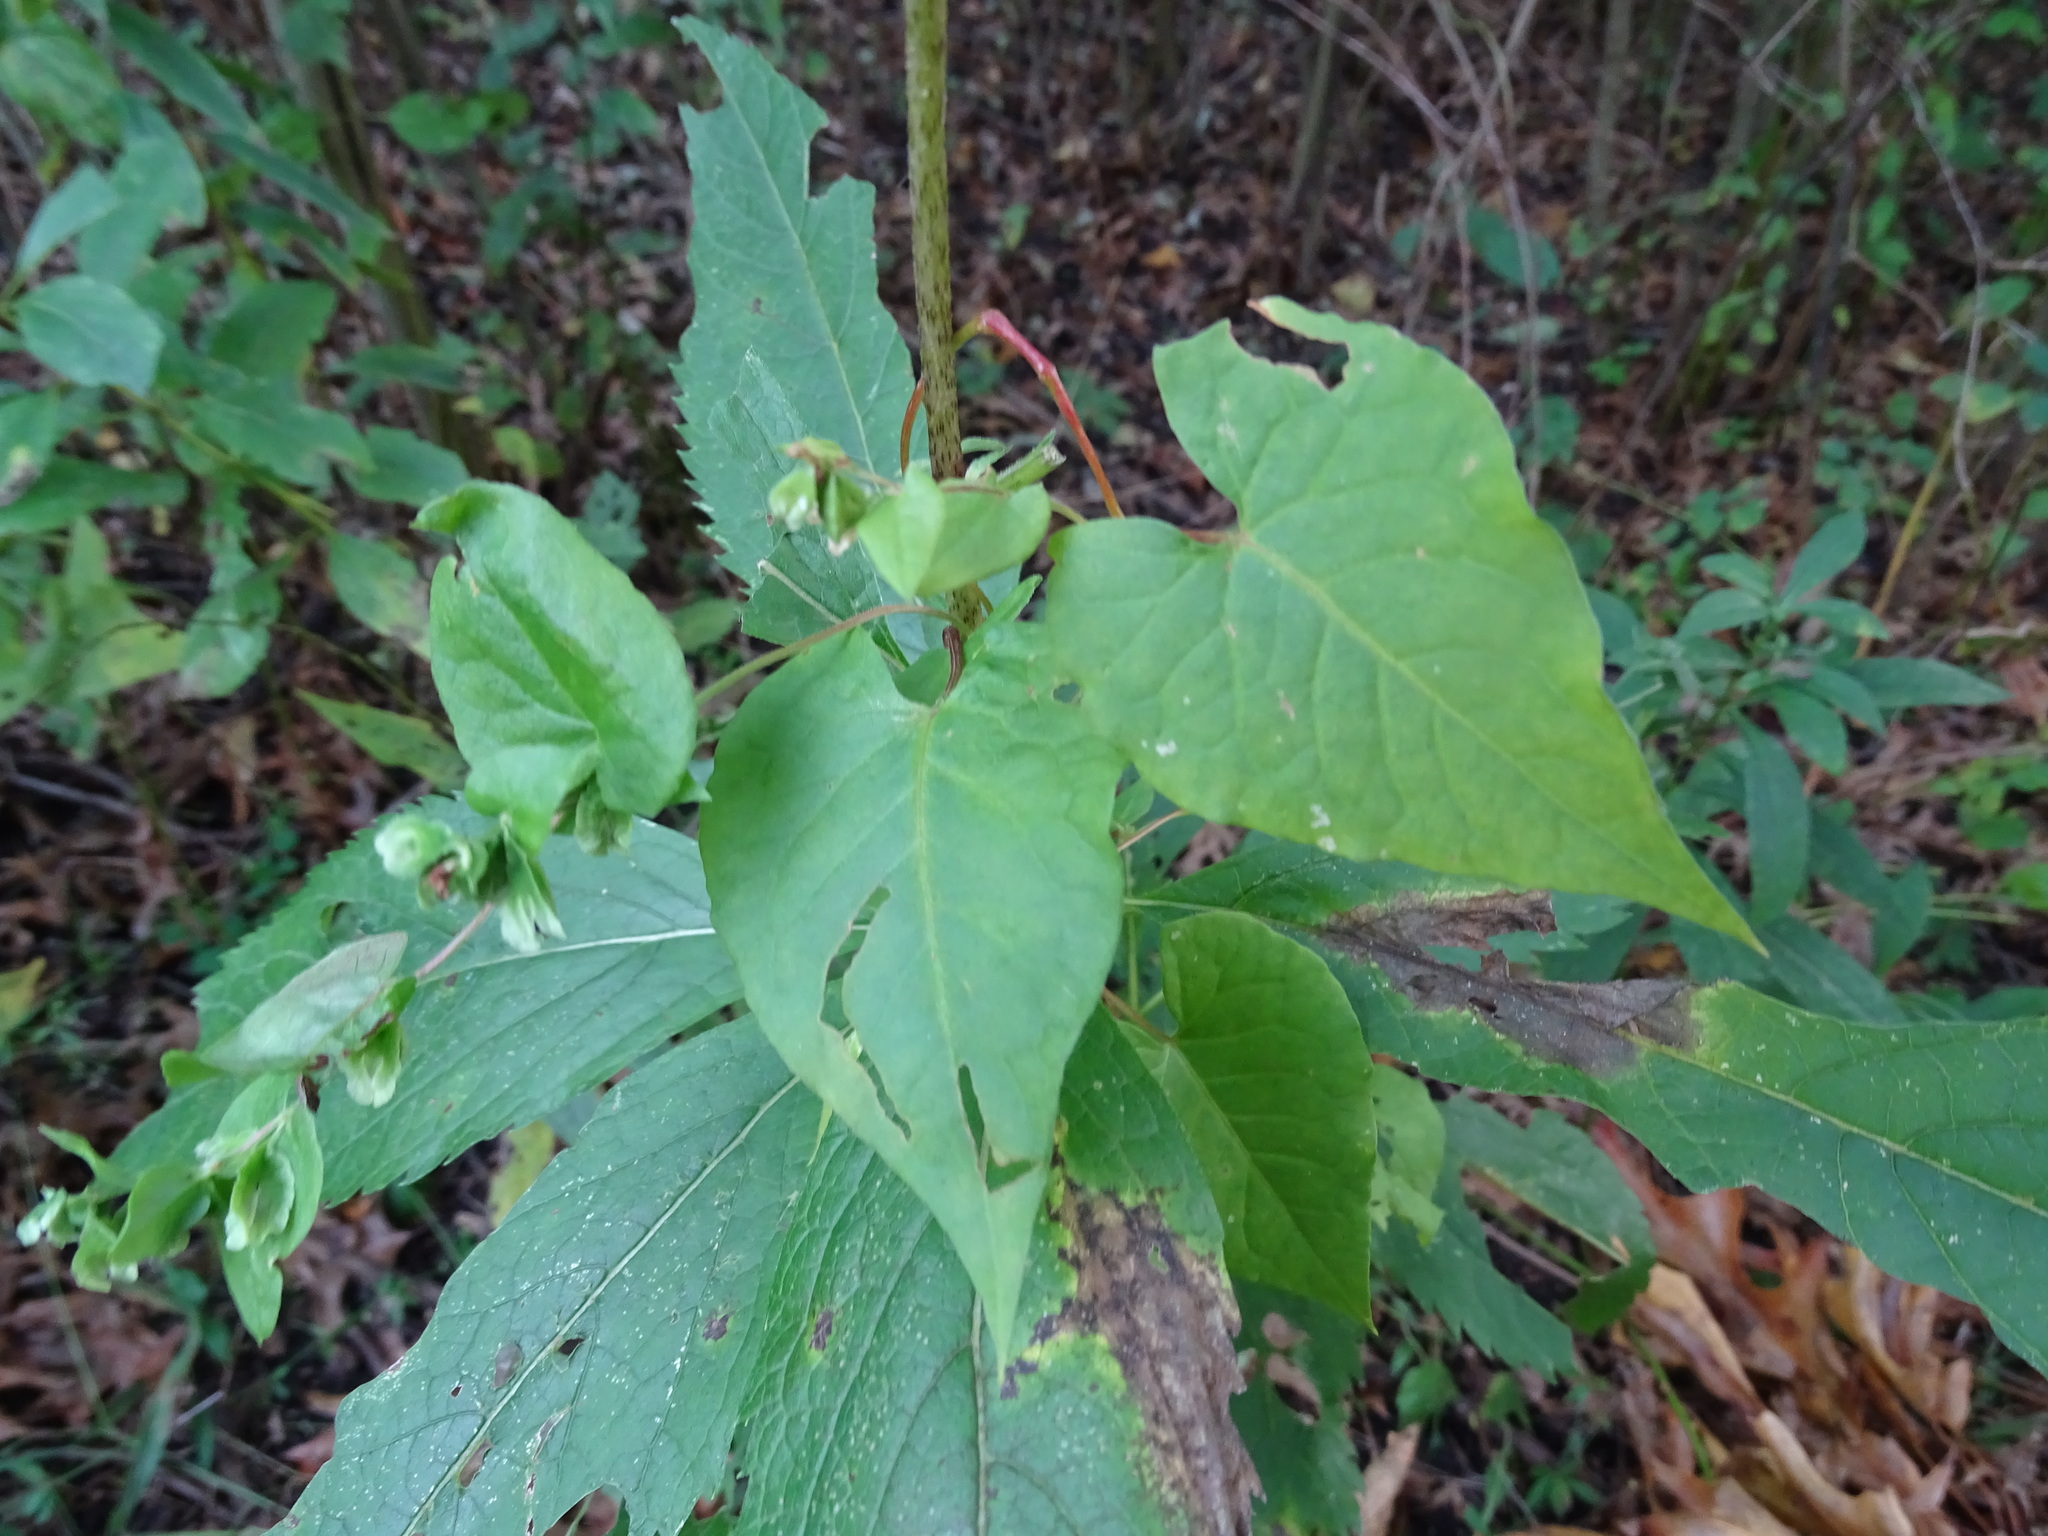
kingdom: Plantae
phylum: Tracheophyta
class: Magnoliopsida
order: Caryophyllales
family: Polygonaceae
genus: Fallopia
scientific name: Fallopia scandens
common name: Climbing false buckwheat
